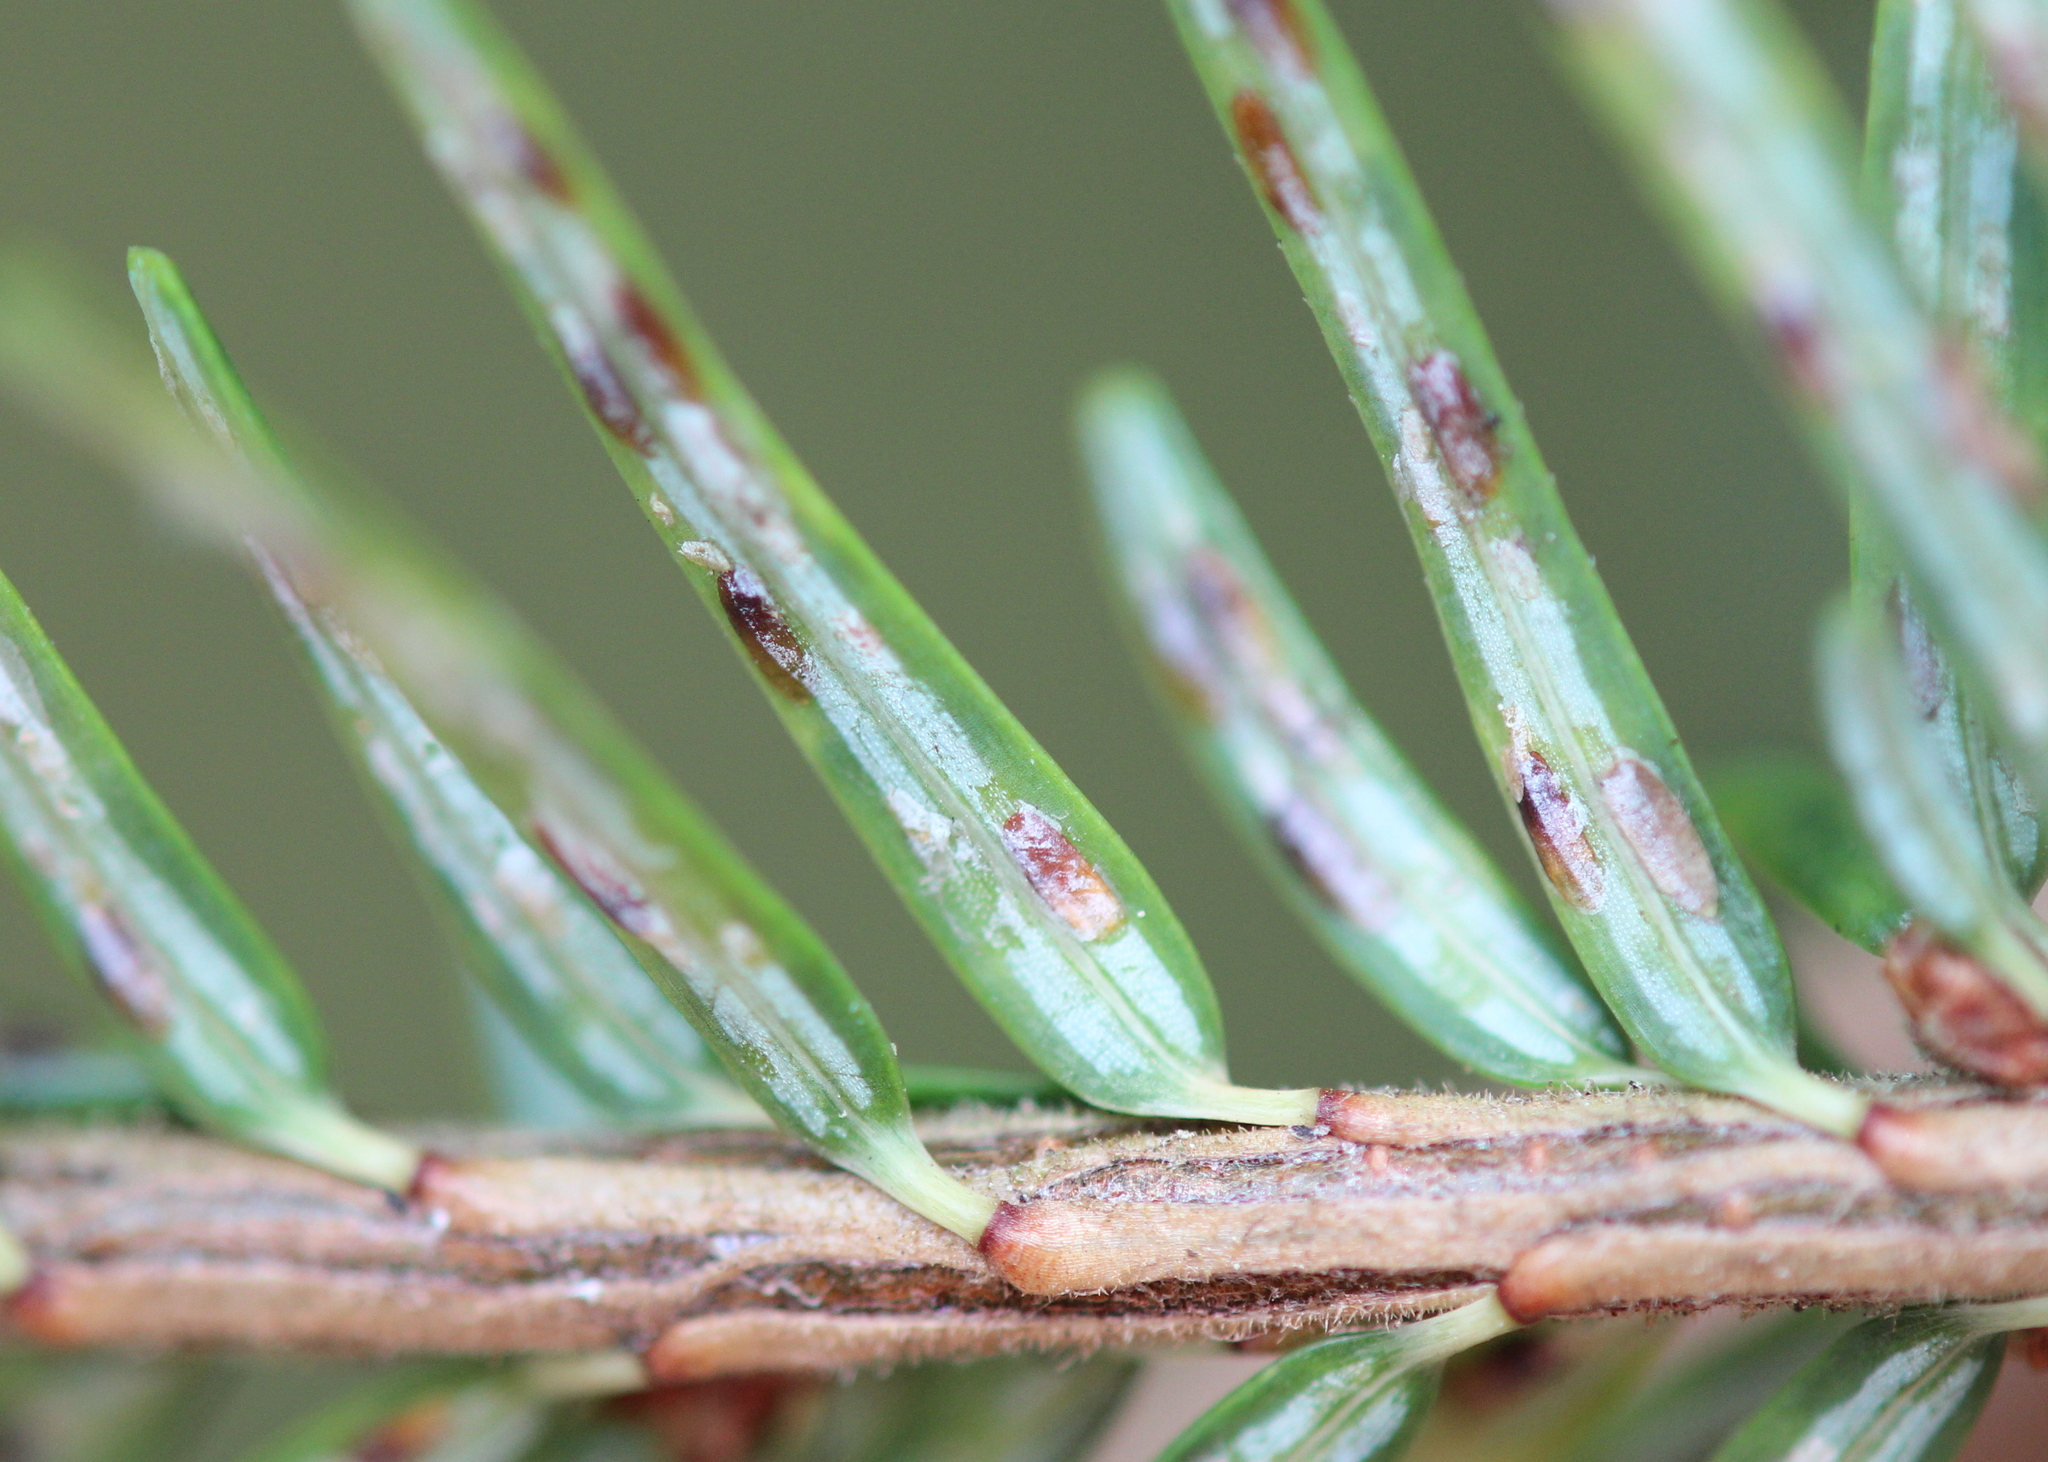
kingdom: Animalia
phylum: Arthropoda
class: Insecta
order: Hemiptera
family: Diaspididae
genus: Fiorinia
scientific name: Fiorinia externa
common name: Elongate hemlock scale
